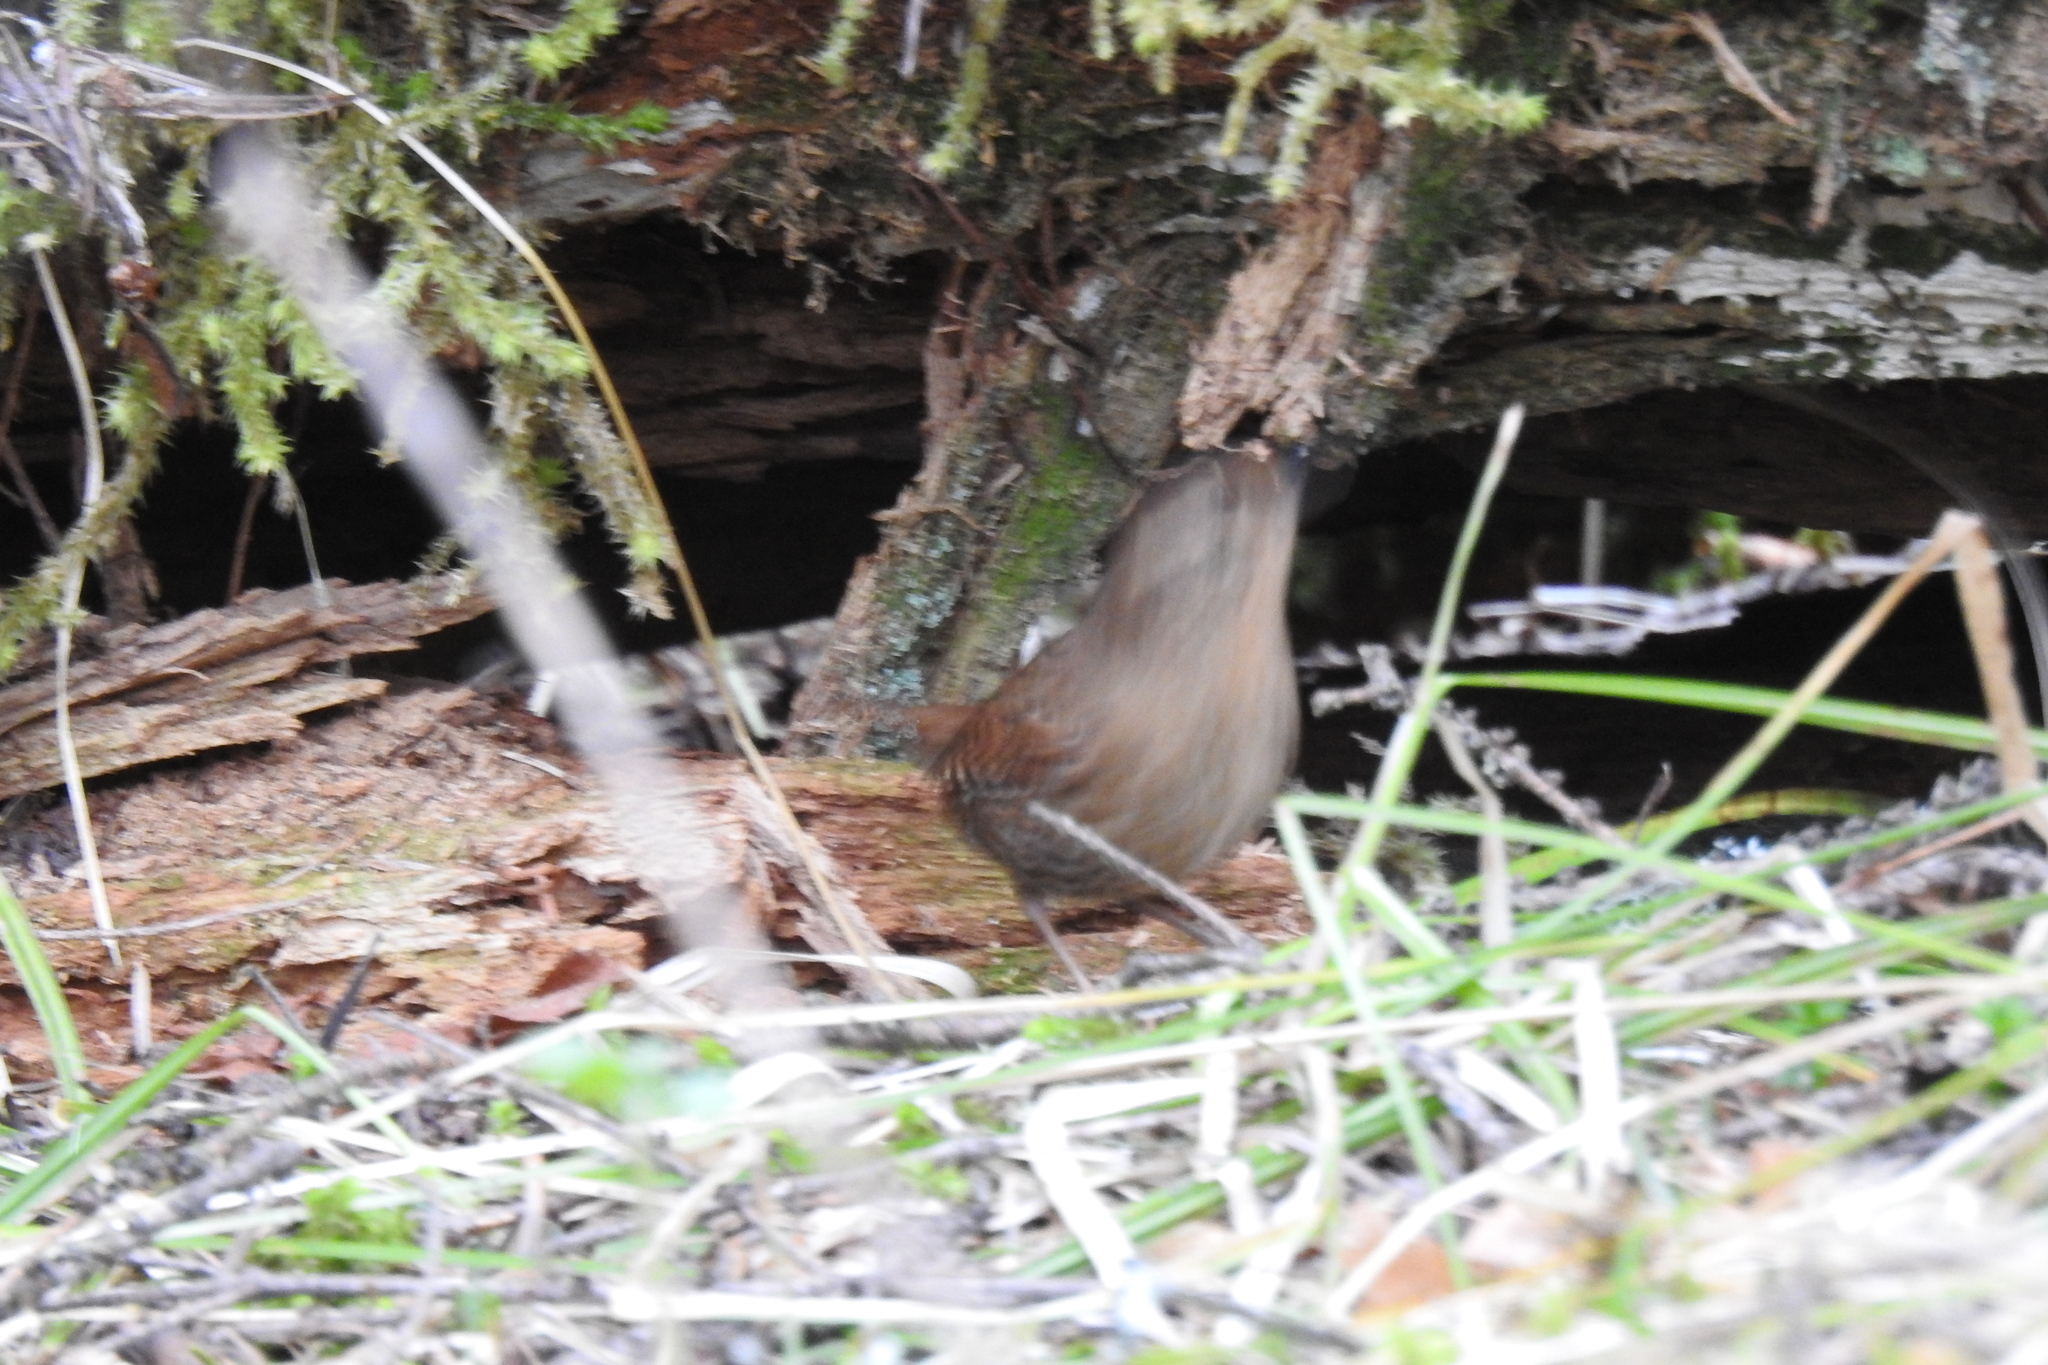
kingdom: Animalia
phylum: Chordata
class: Aves
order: Passeriformes
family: Troglodytidae
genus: Troglodytes
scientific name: Troglodytes pacificus
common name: Pacific wren
